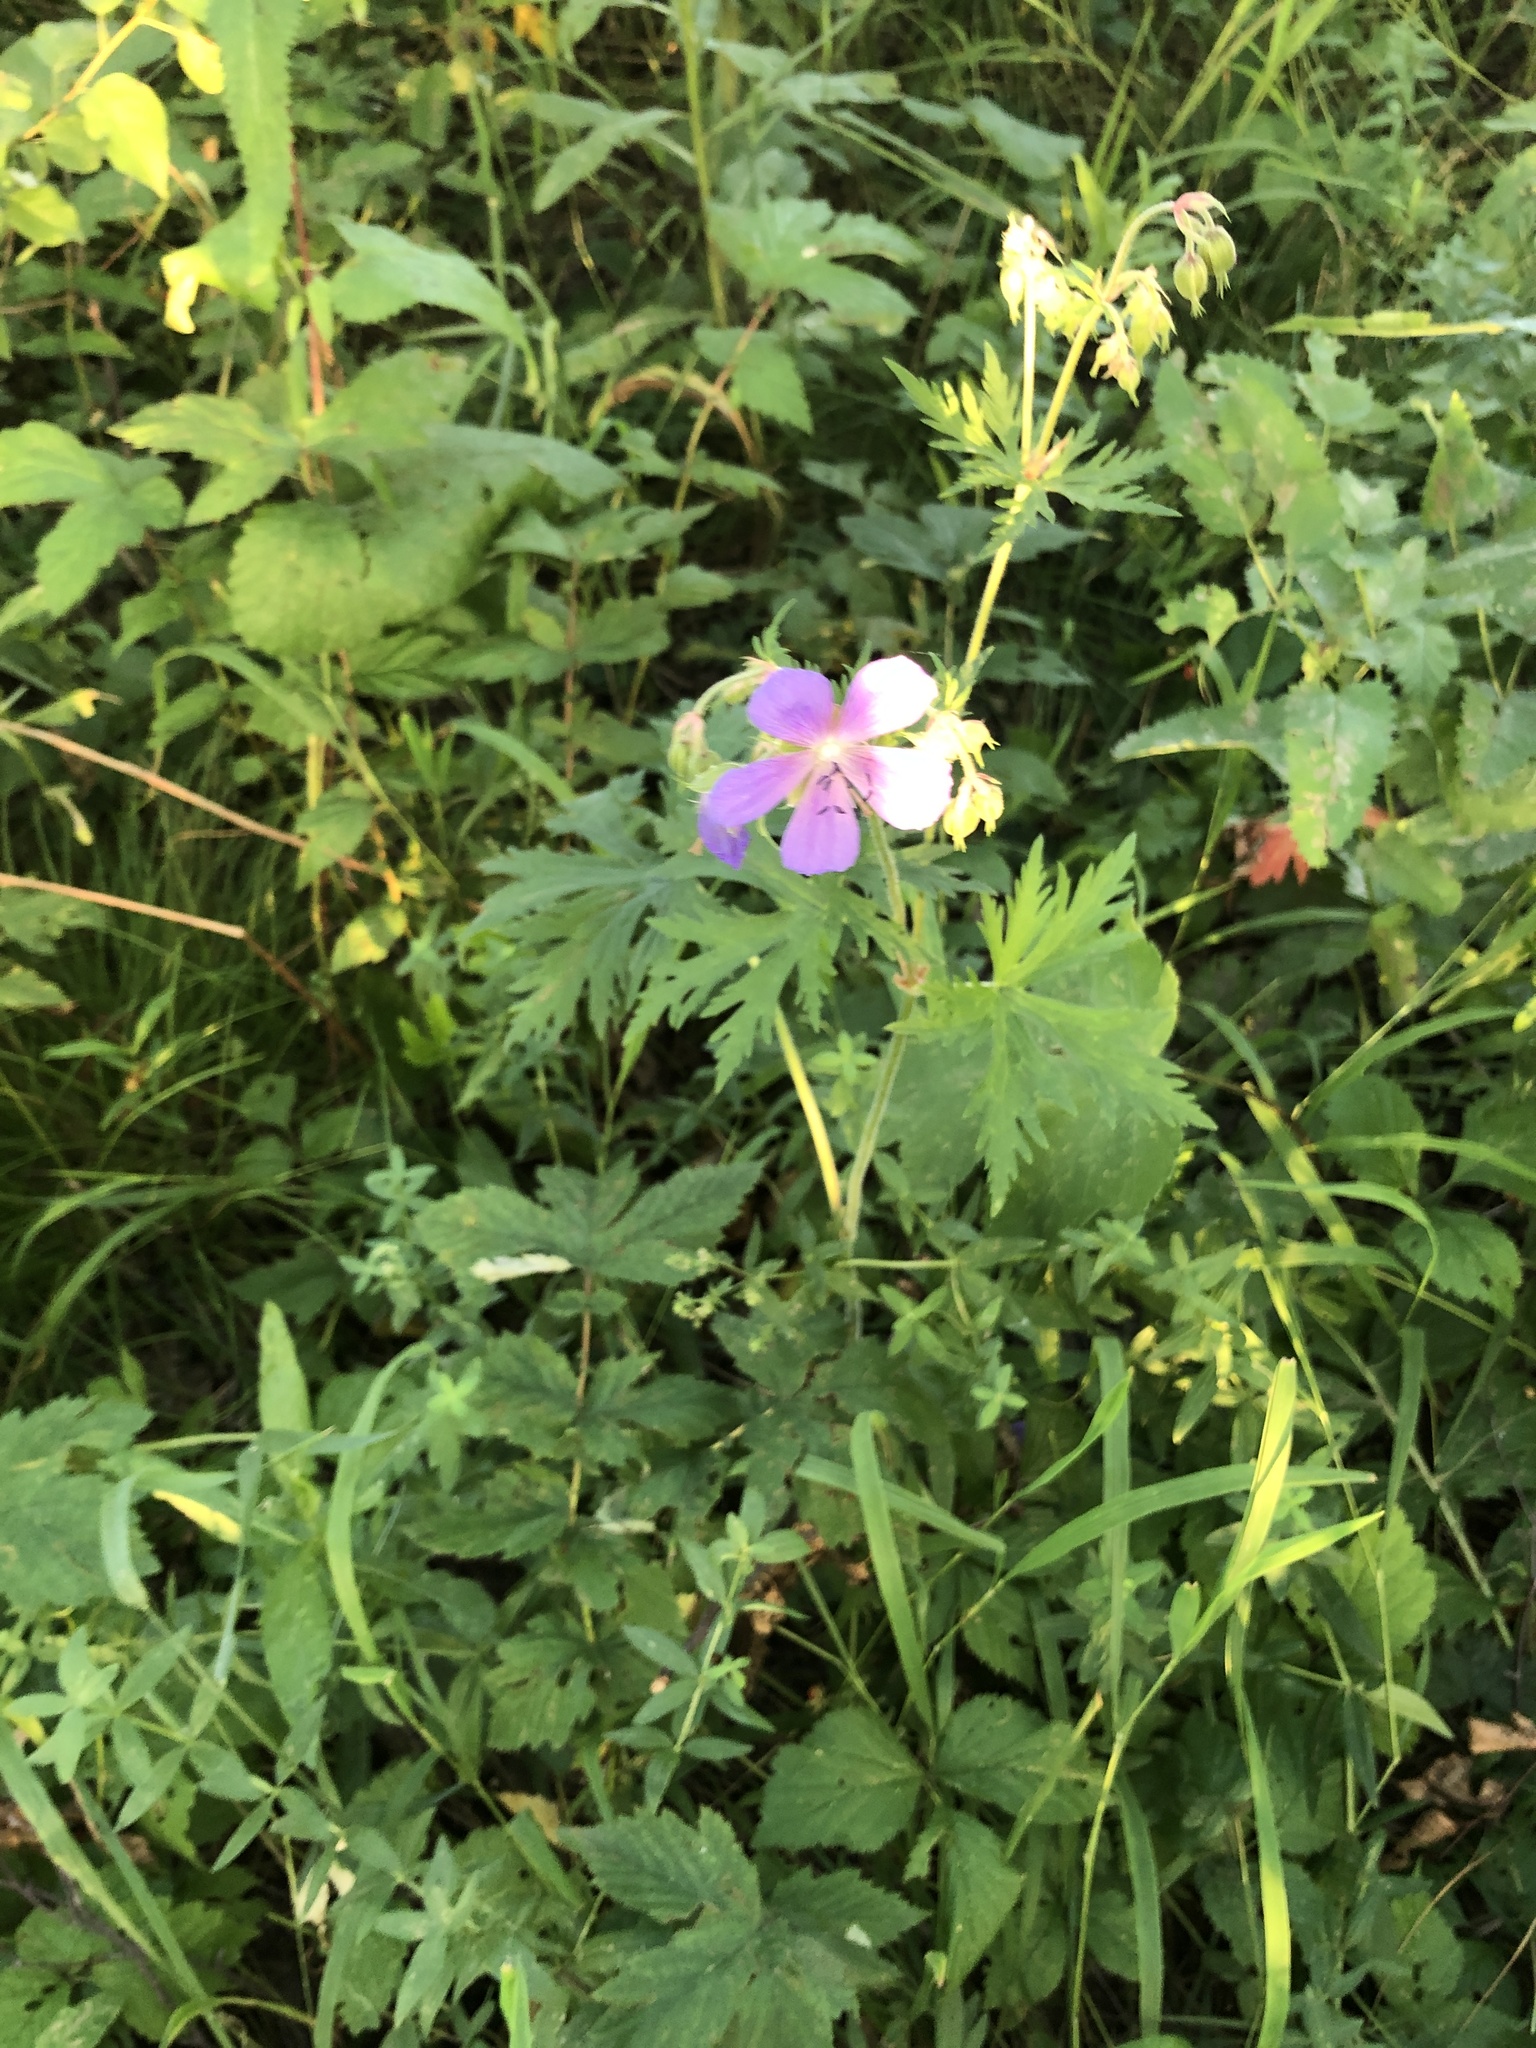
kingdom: Plantae
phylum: Tracheophyta
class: Magnoliopsida
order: Geraniales
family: Geraniaceae
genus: Geranium
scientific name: Geranium pratense
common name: Meadow crane's-bill
